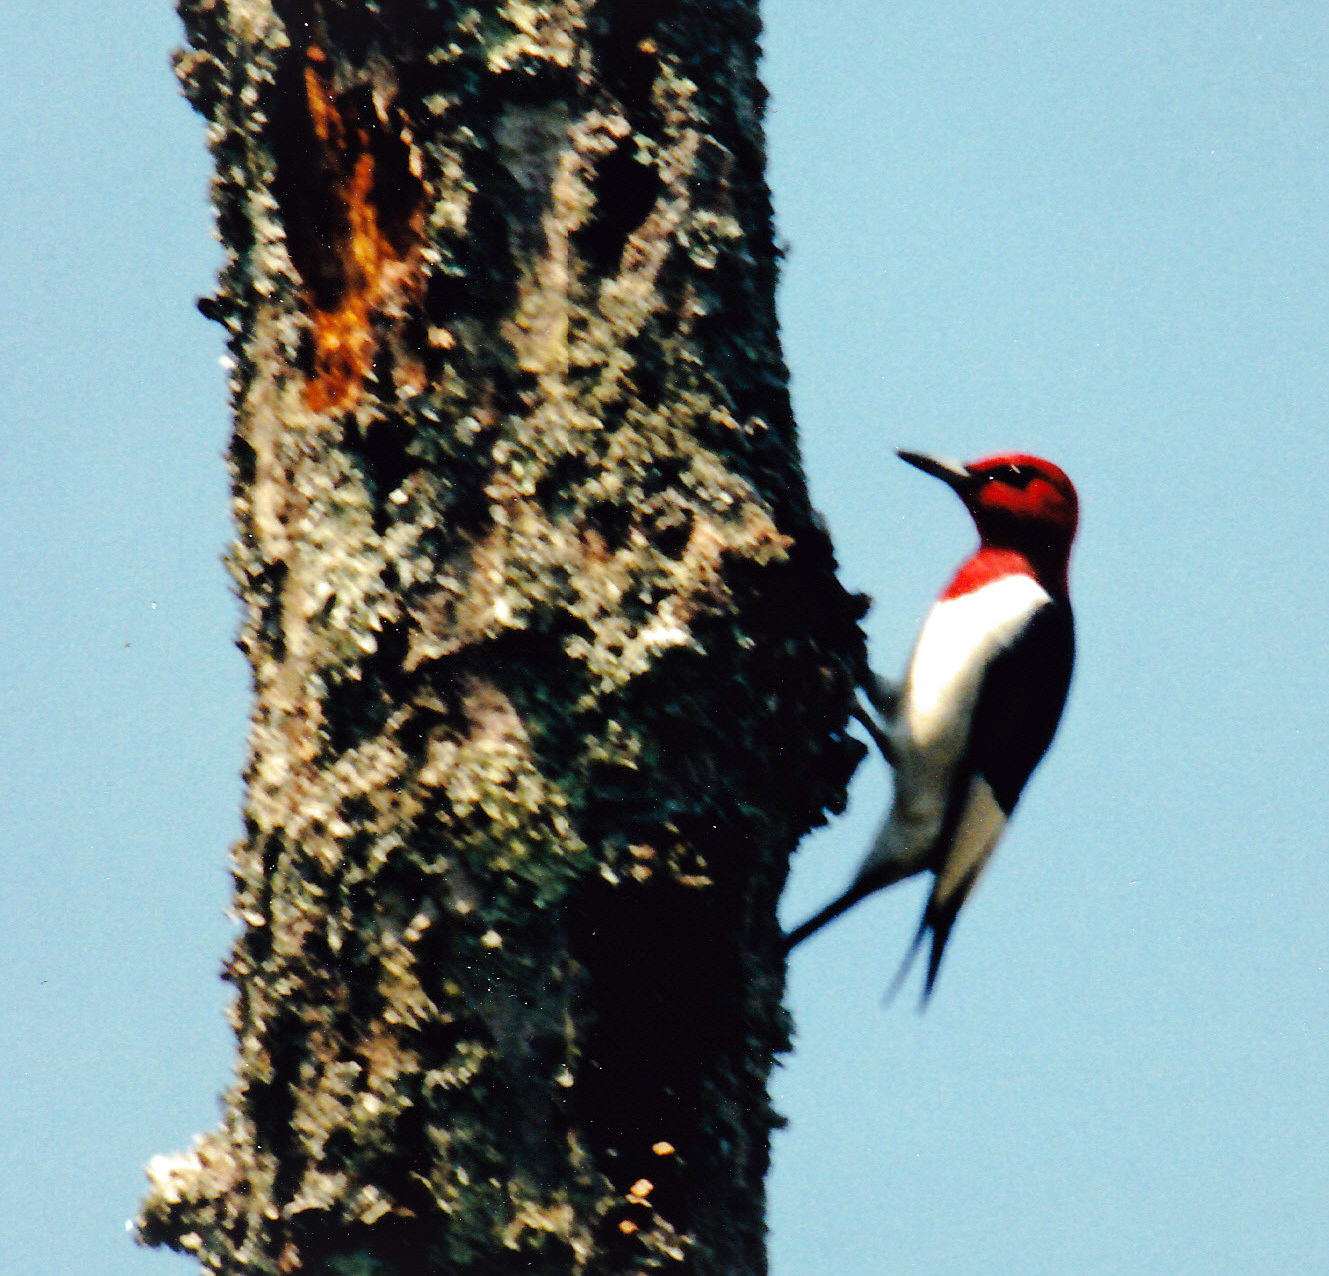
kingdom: Animalia
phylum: Chordata
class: Aves
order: Piciformes
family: Picidae
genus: Melanerpes
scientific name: Melanerpes erythrocephalus
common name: Red-headed woodpecker
